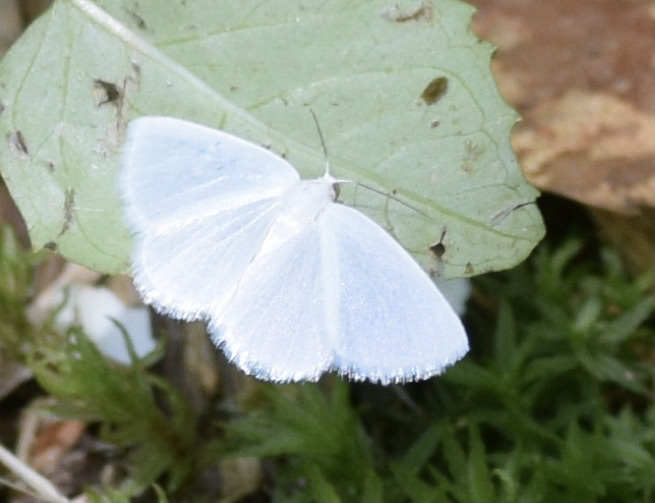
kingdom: Animalia
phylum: Arthropoda
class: Insecta
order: Lepidoptera
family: Geometridae
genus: Lomographa
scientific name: Lomographa vestaliata
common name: White spring moth
